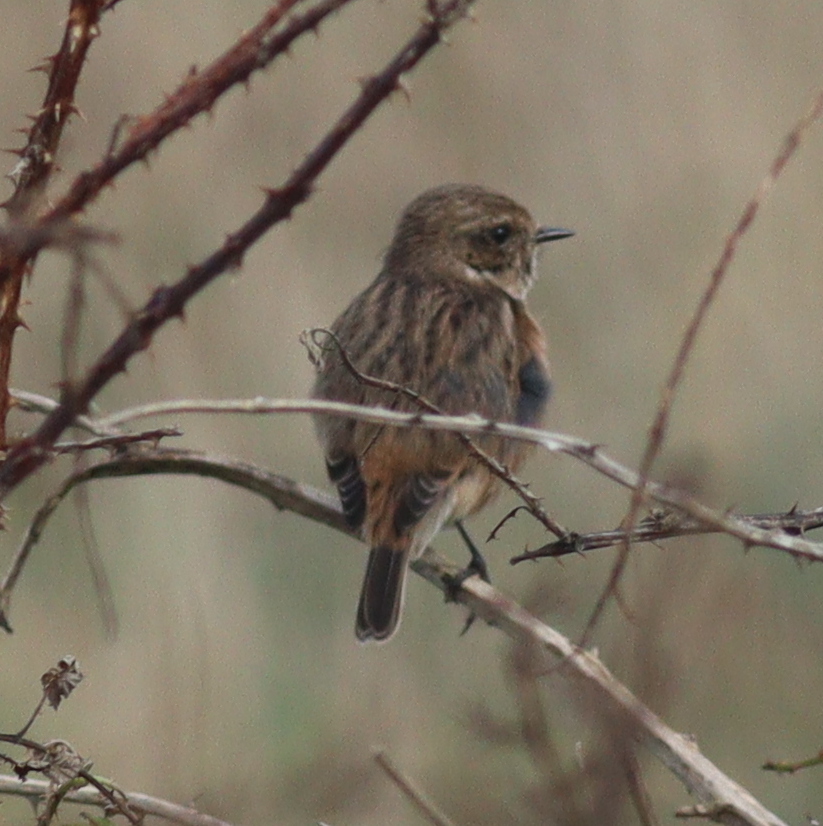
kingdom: Animalia
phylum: Chordata
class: Aves
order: Passeriformes
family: Muscicapidae
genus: Saxicola
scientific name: Saxicola rubicola
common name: European stonechat
